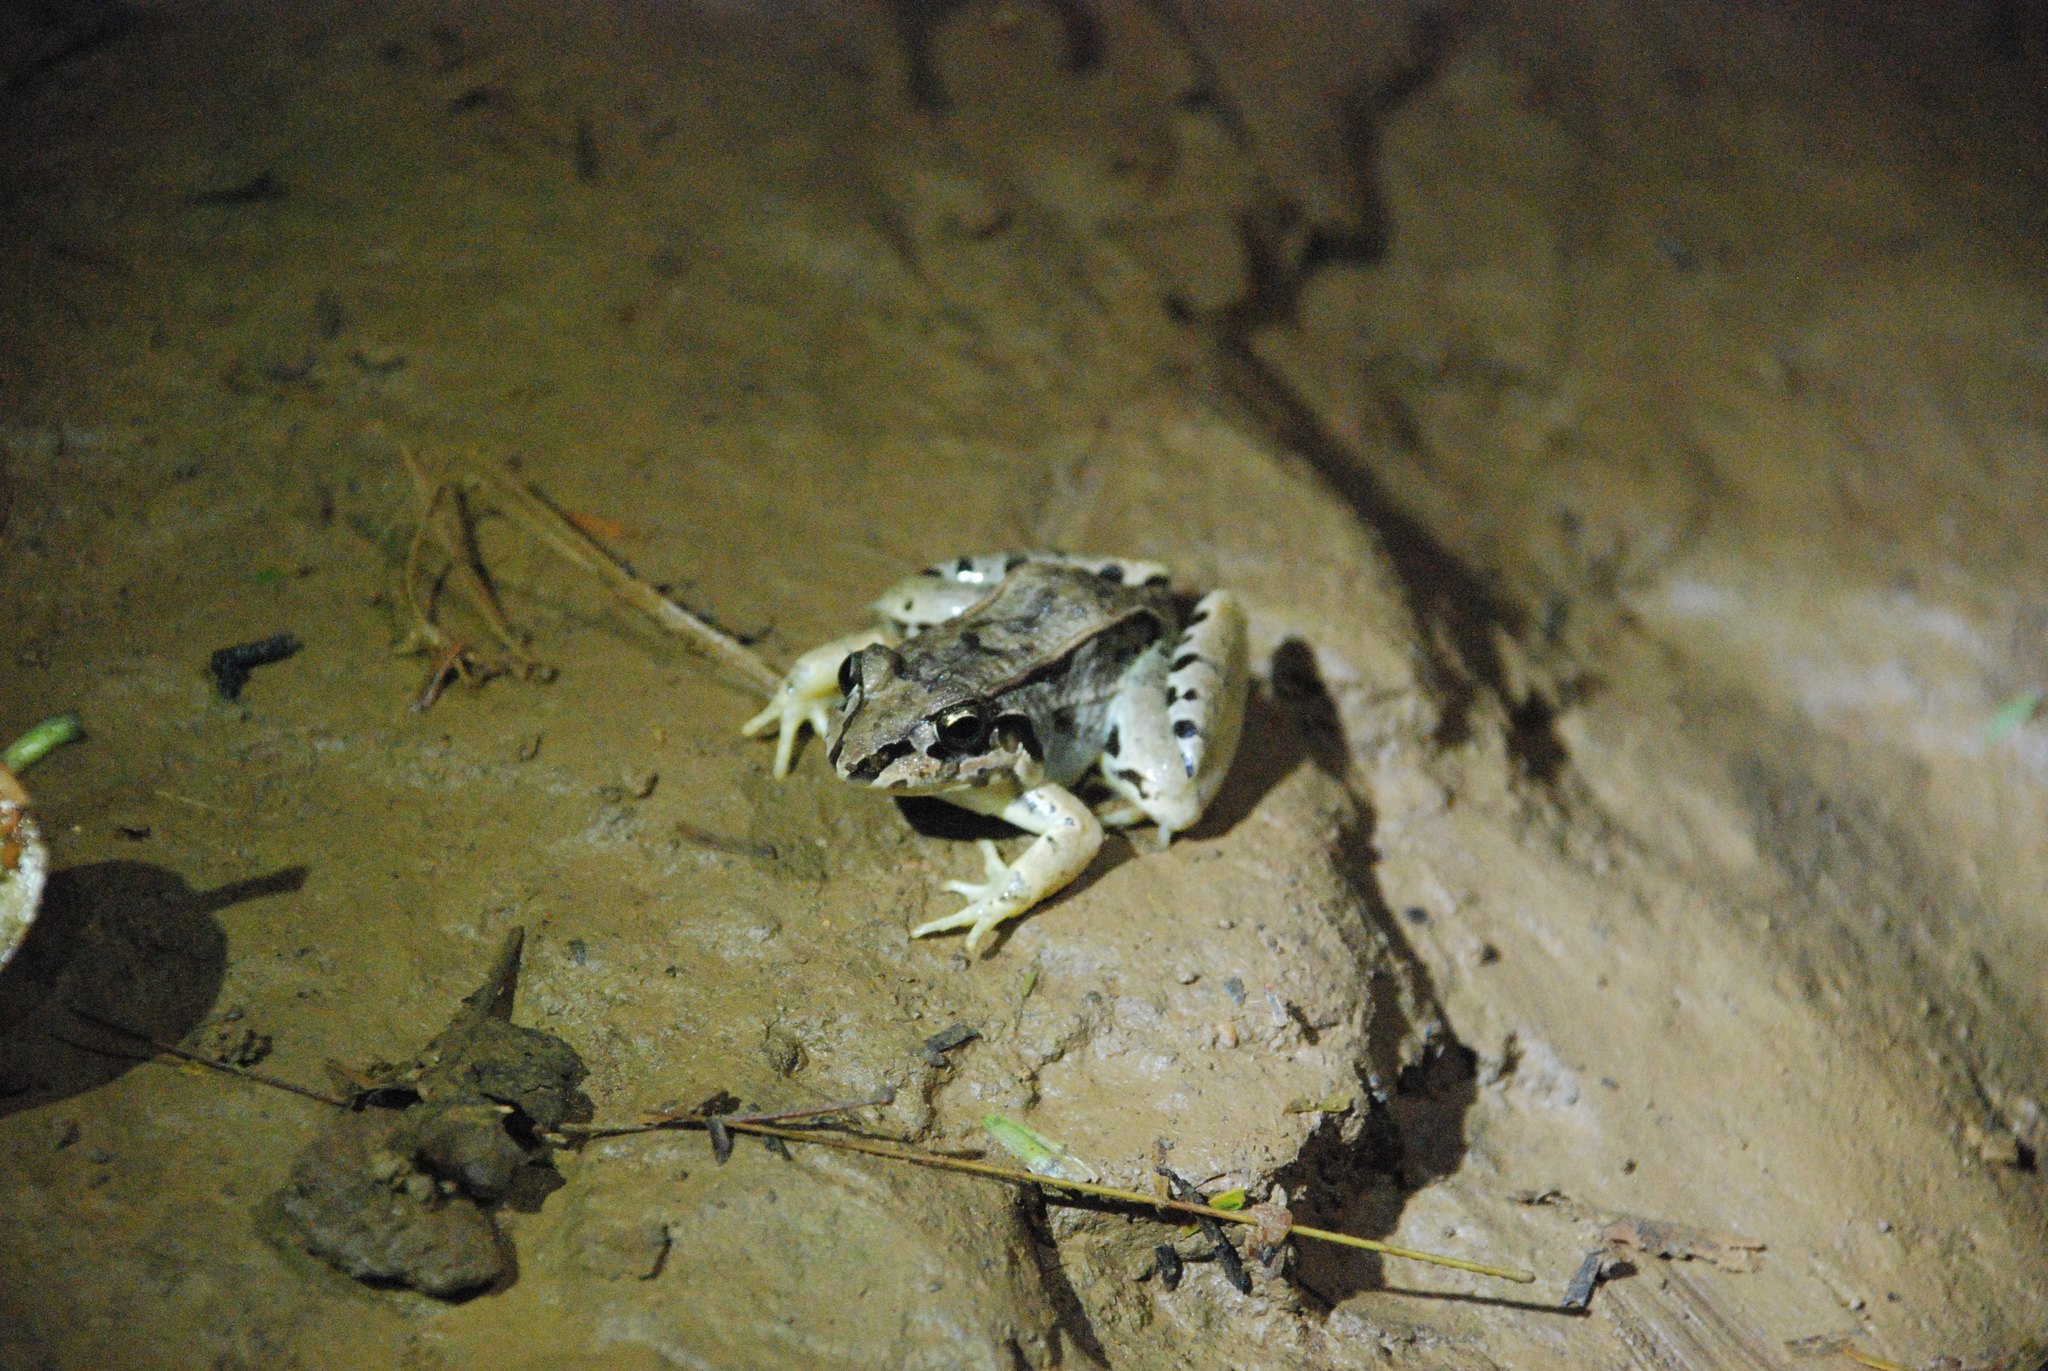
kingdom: Animalia
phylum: Chordata
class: Amphibia
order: Anura
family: Leptodactylidae
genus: Leptodactylus
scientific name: Leptodactylus poecilochilus
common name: Turbo white-lipped frog
